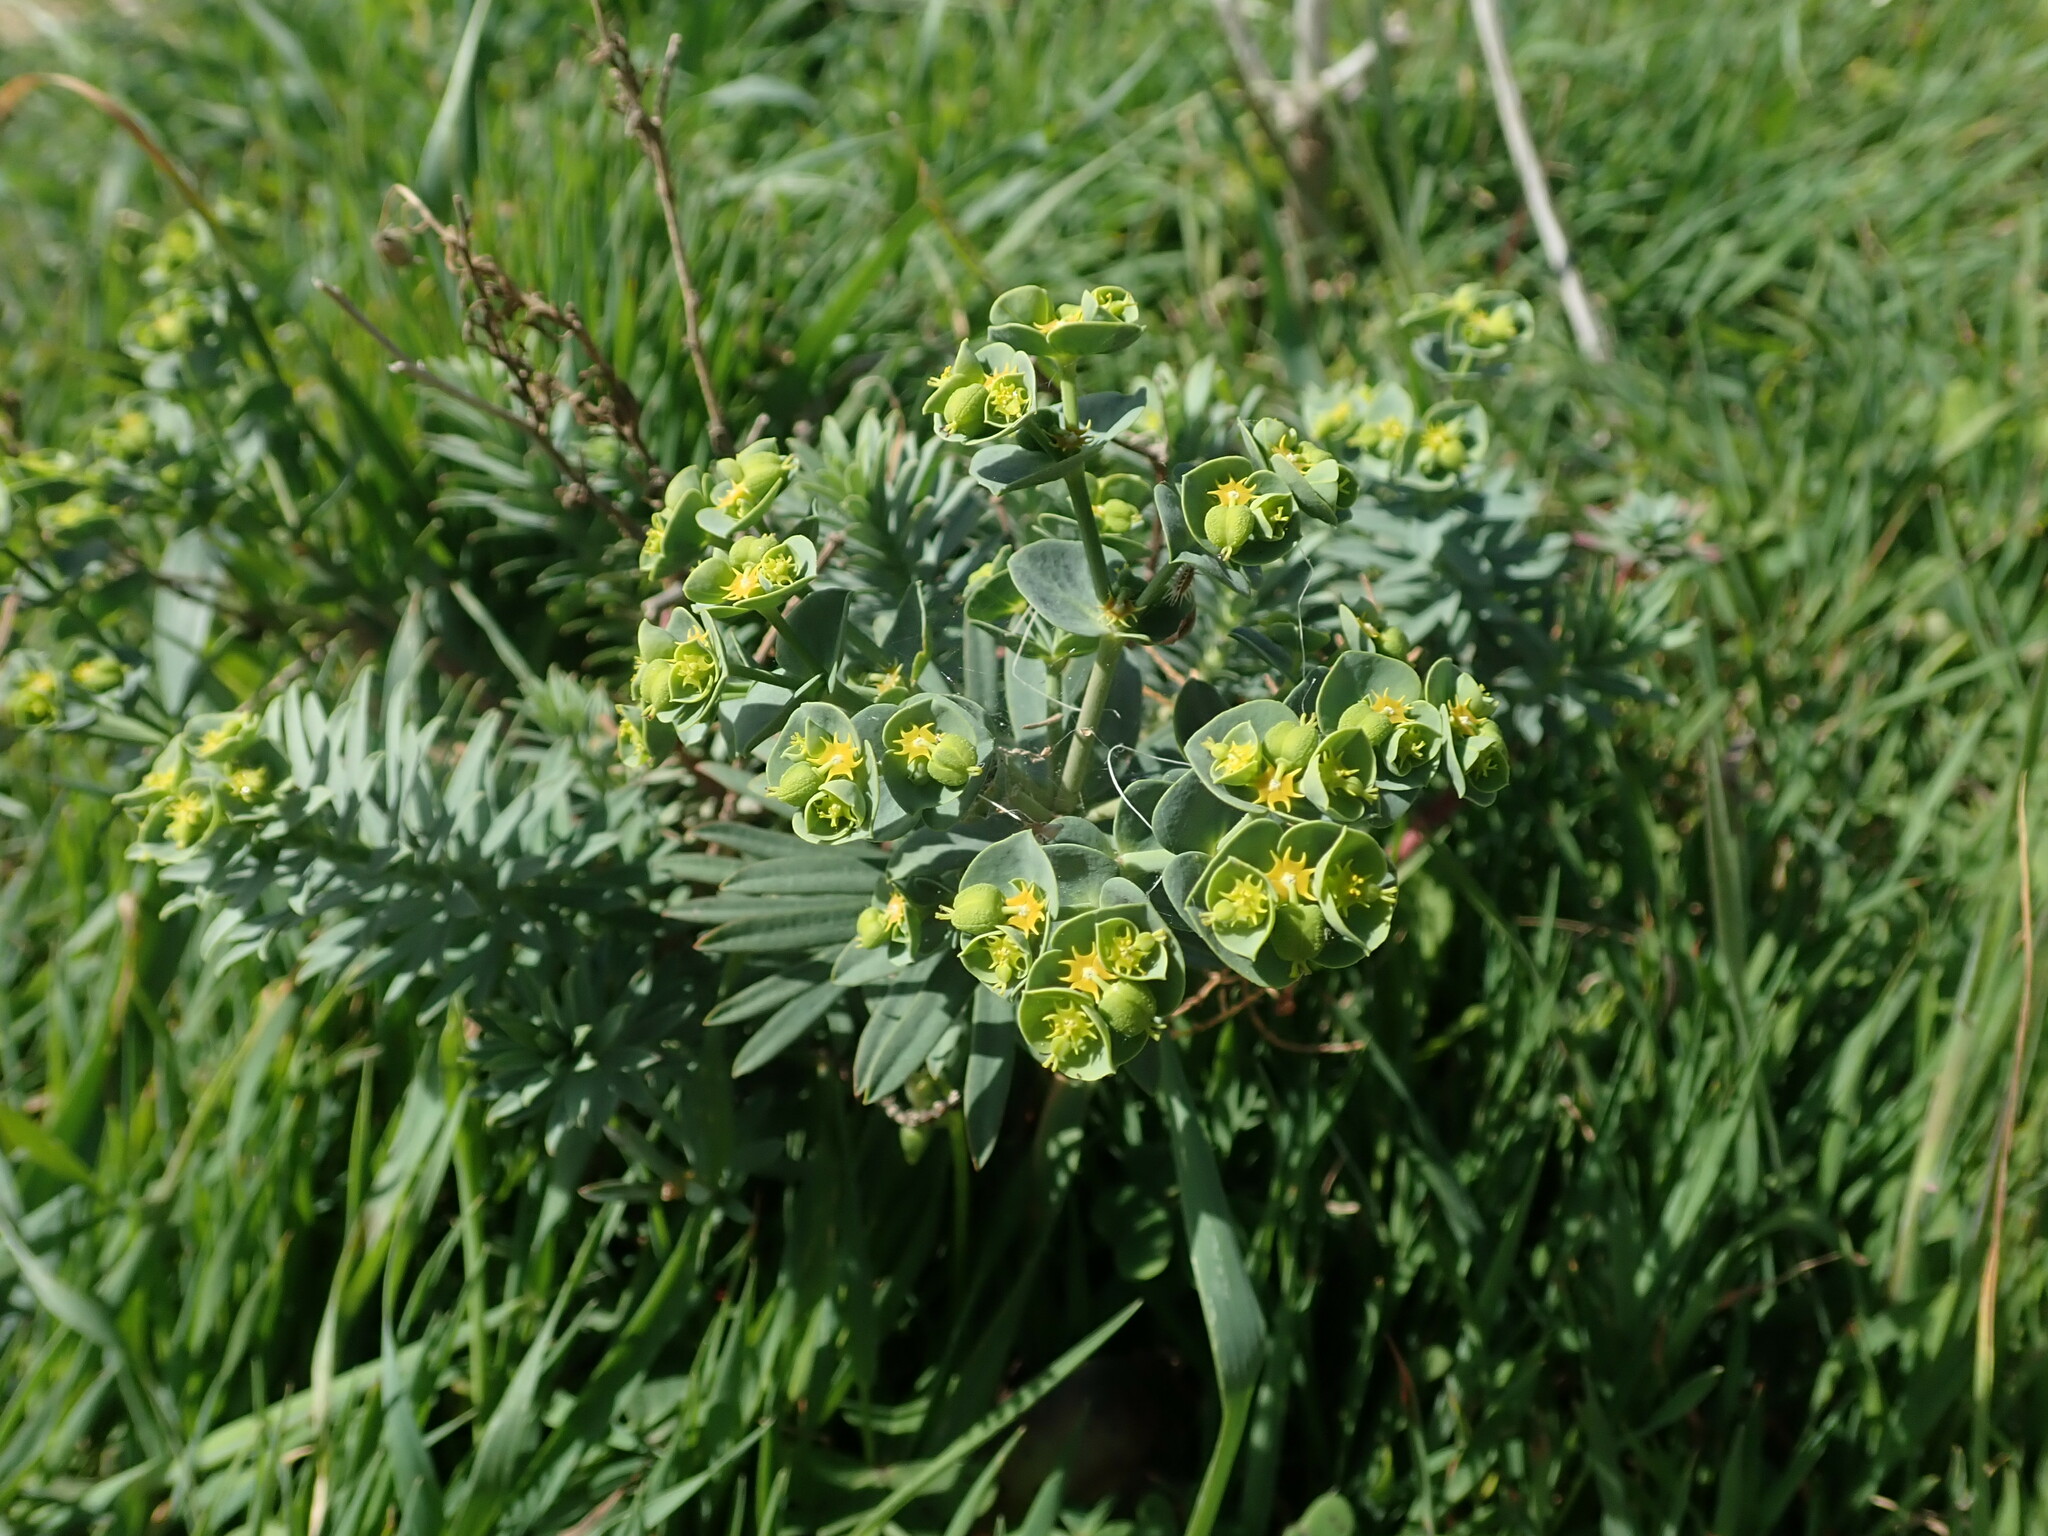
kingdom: Plantae
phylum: Tracheophyta
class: Magnoliopsida
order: Malpighiales
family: Euphorbiaceae
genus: Euphorbia
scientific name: Euphorbia segetalis
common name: Corn spurge
